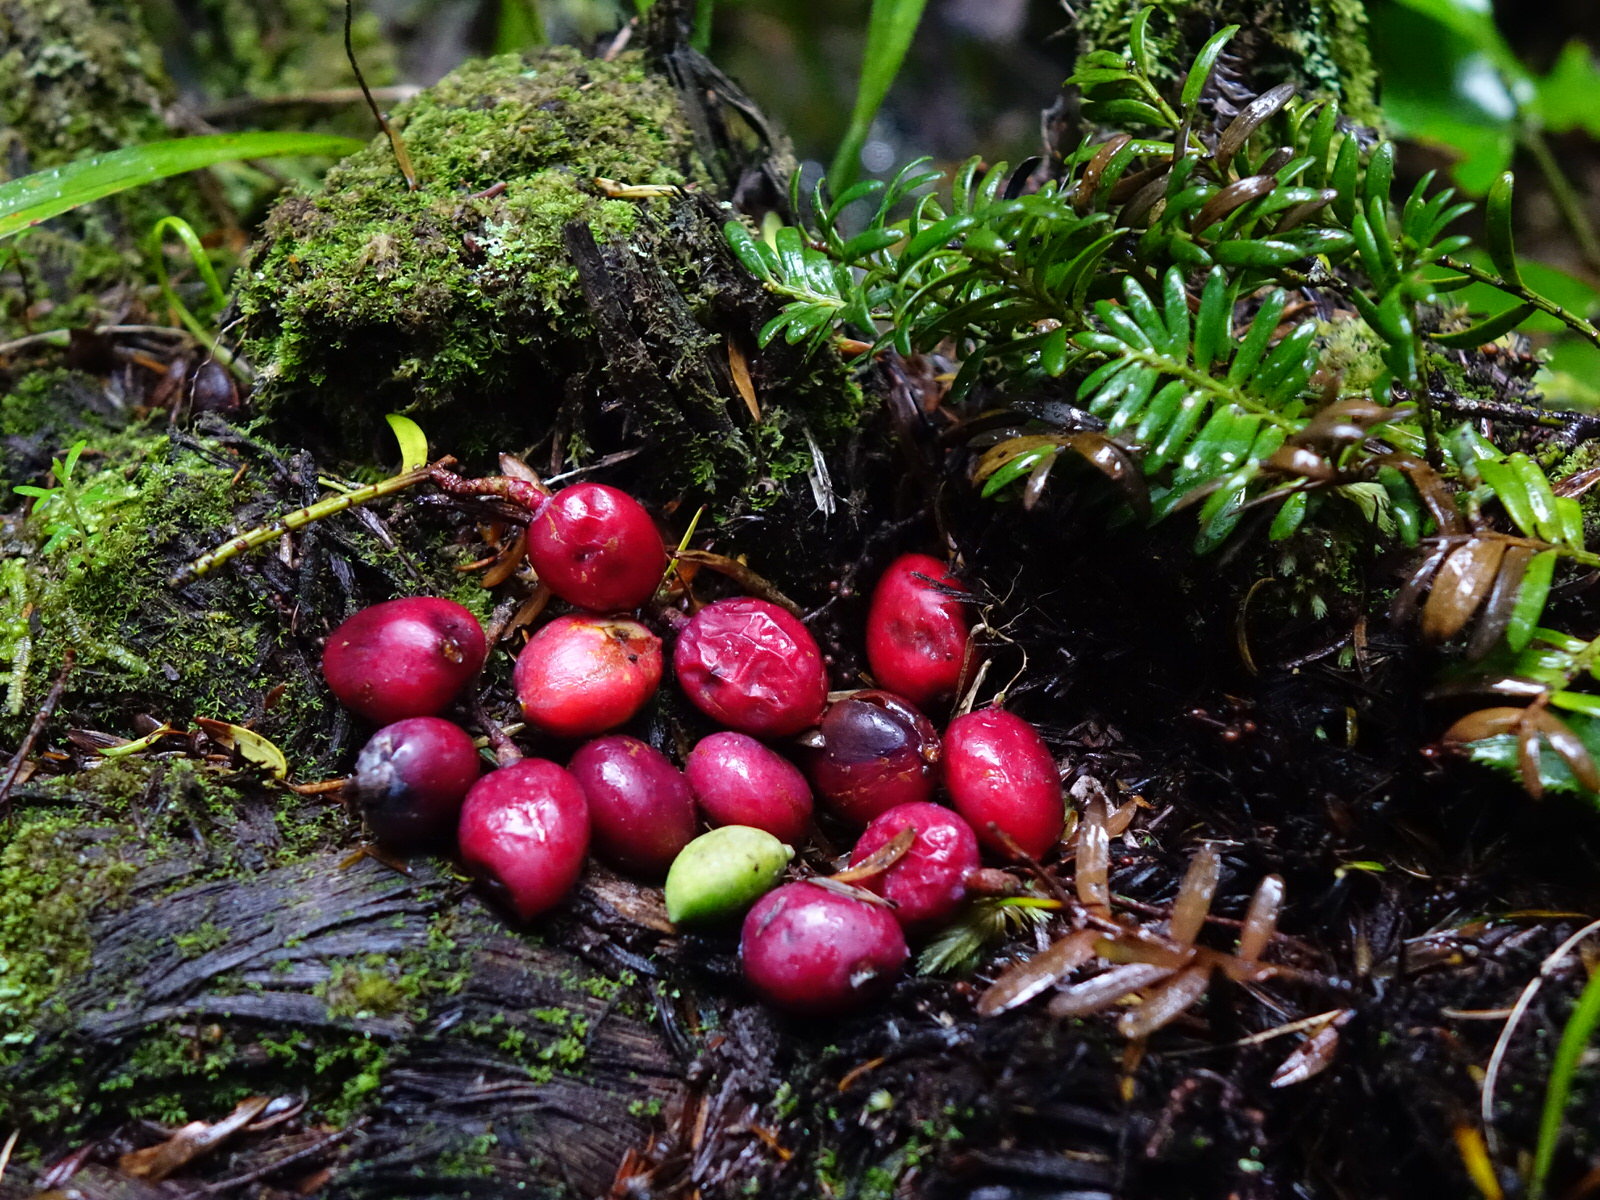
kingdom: Plantae
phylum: Tracheophyta
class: Pinopsida
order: Pinales
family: Podocarpaceae
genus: Prumnopitys
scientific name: Prumnopitys ferruginea
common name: Brown pine
